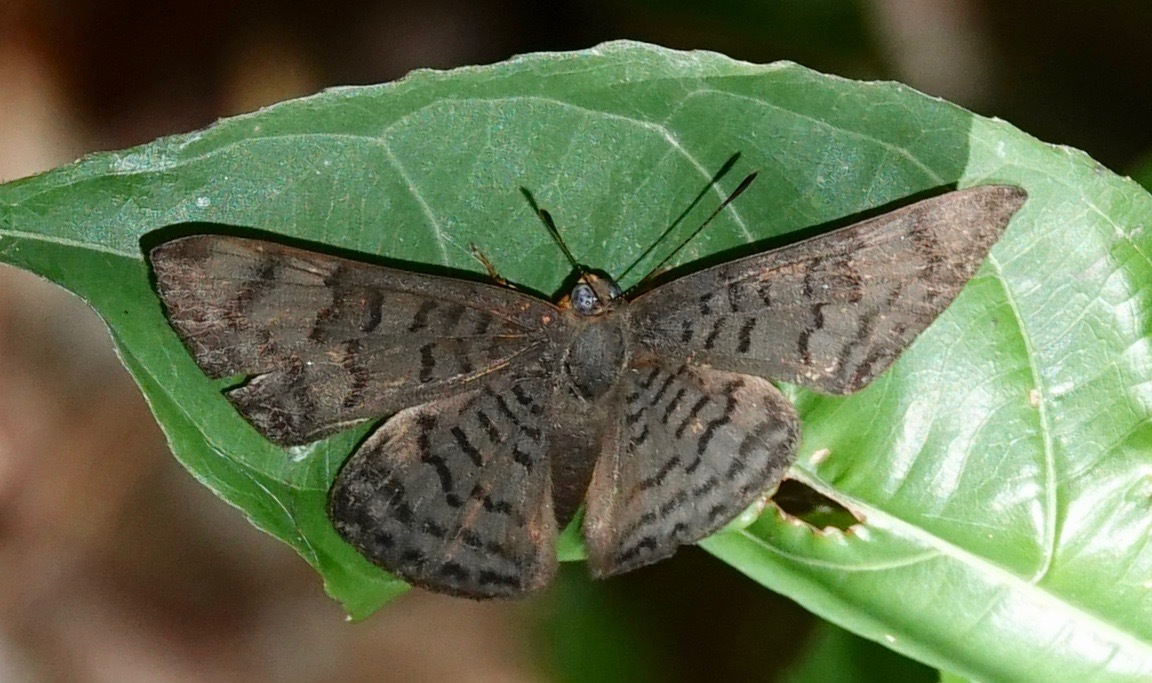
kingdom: Animalia
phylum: Arthropoda
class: Insecta
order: Lepidoptera
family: Lycaenidae
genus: Emesis
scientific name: Emesis spreta
